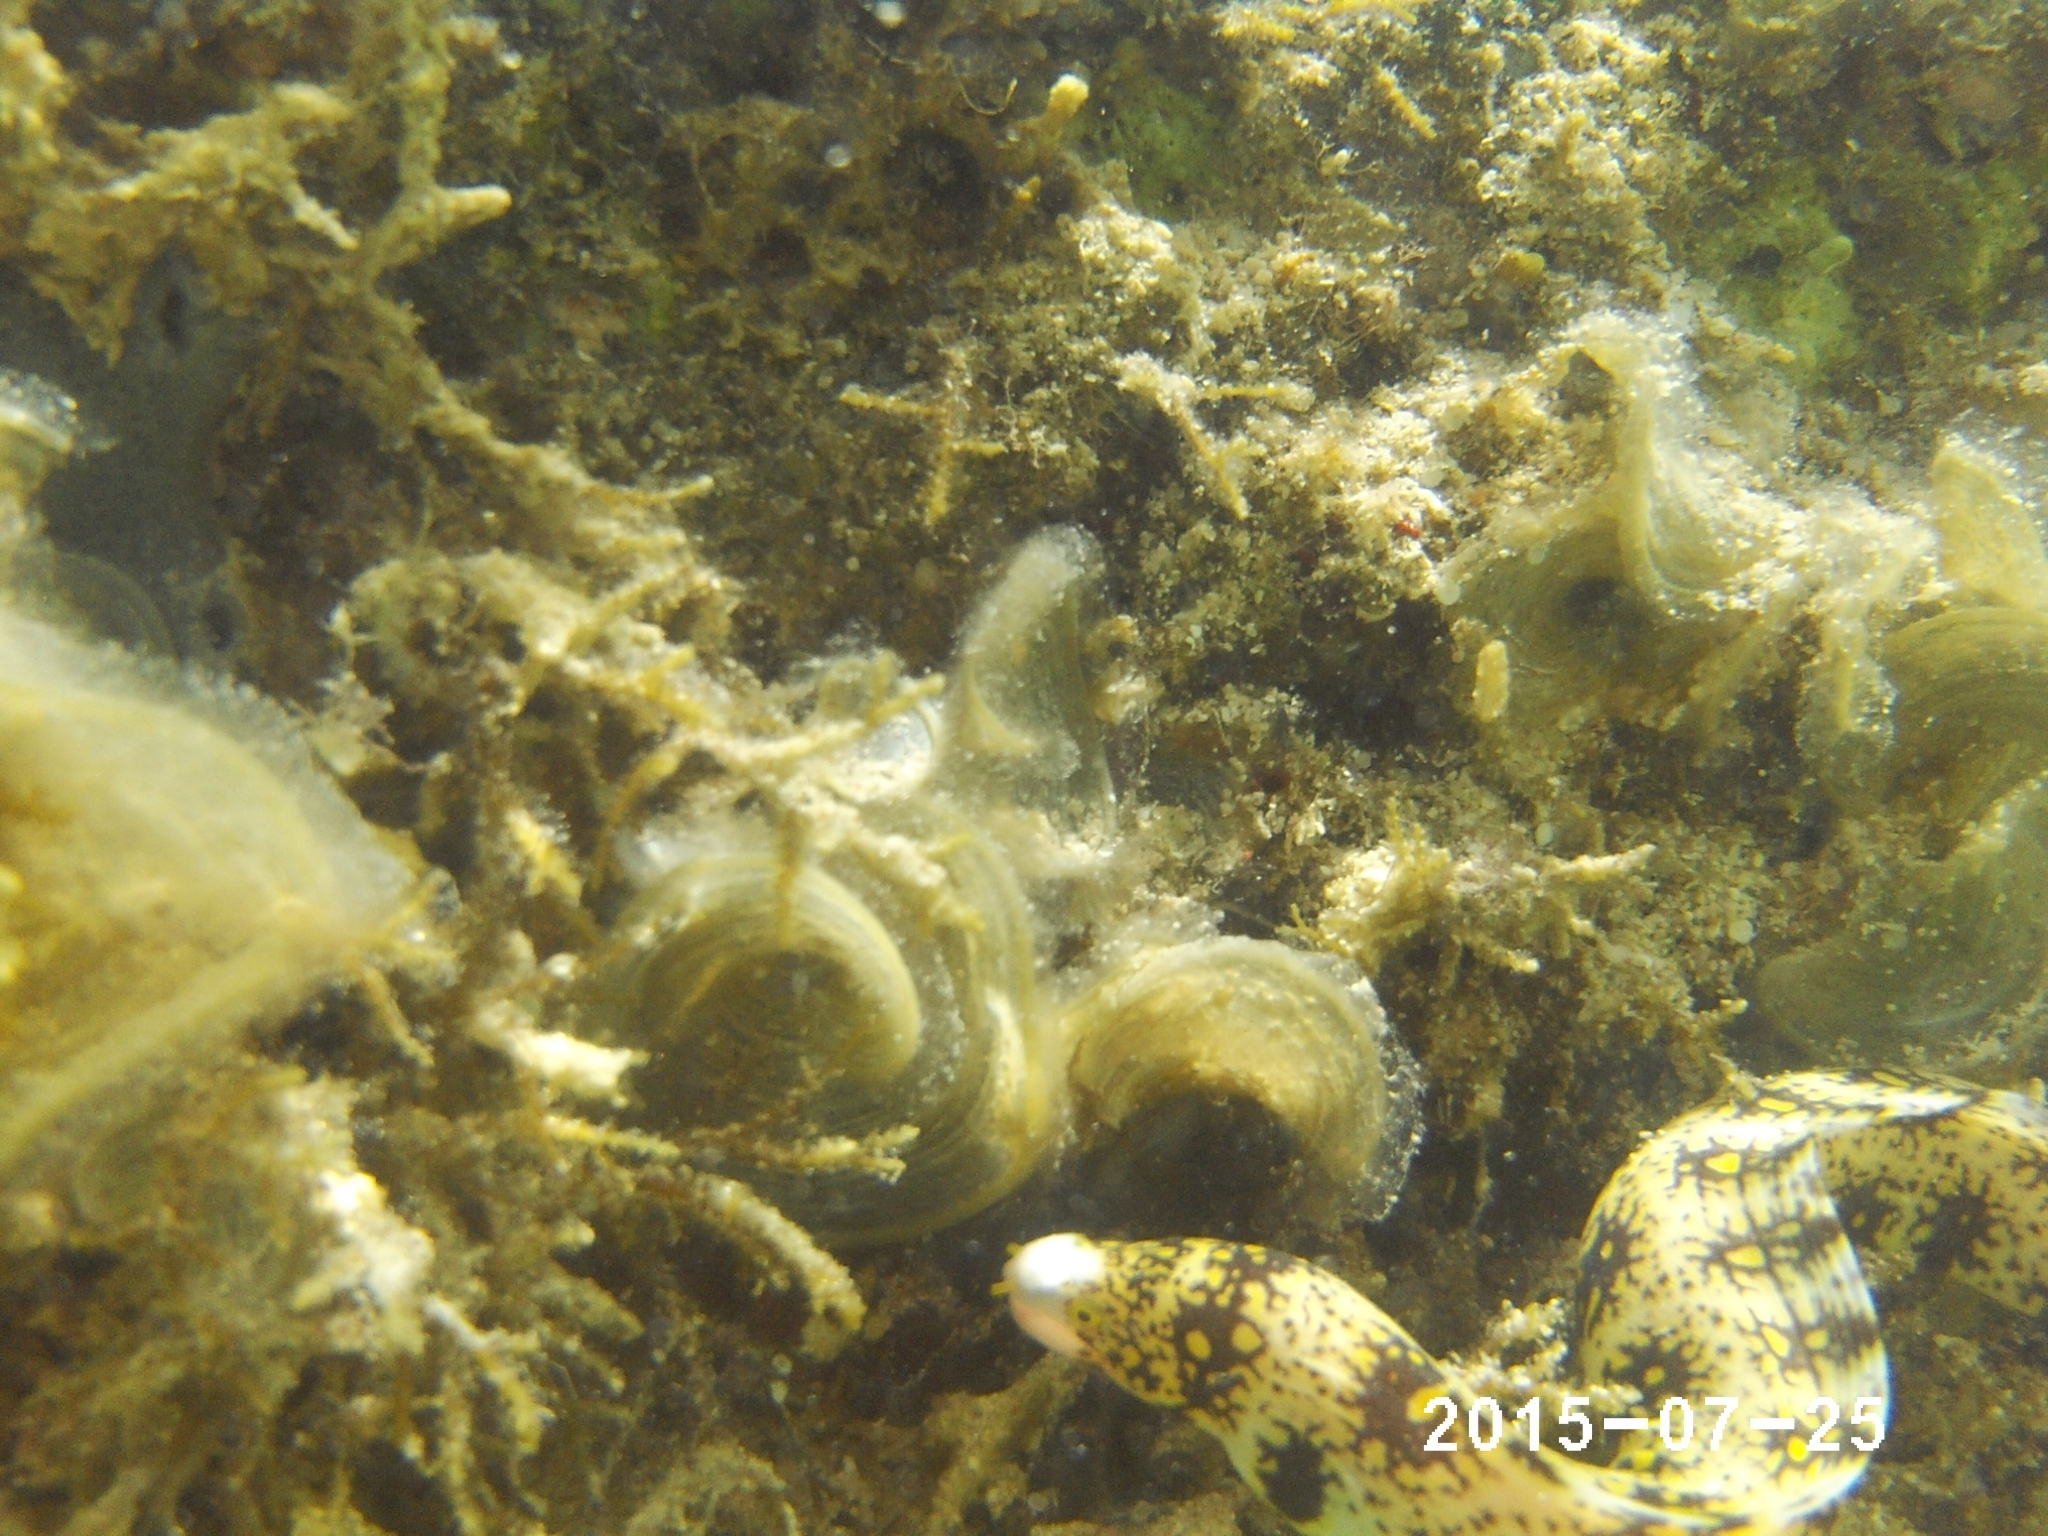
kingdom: Animalia
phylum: Chordata
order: Anguilliformes
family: Muraenidae
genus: Echidna
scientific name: Echidna nebulosa
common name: Snowflake moray
